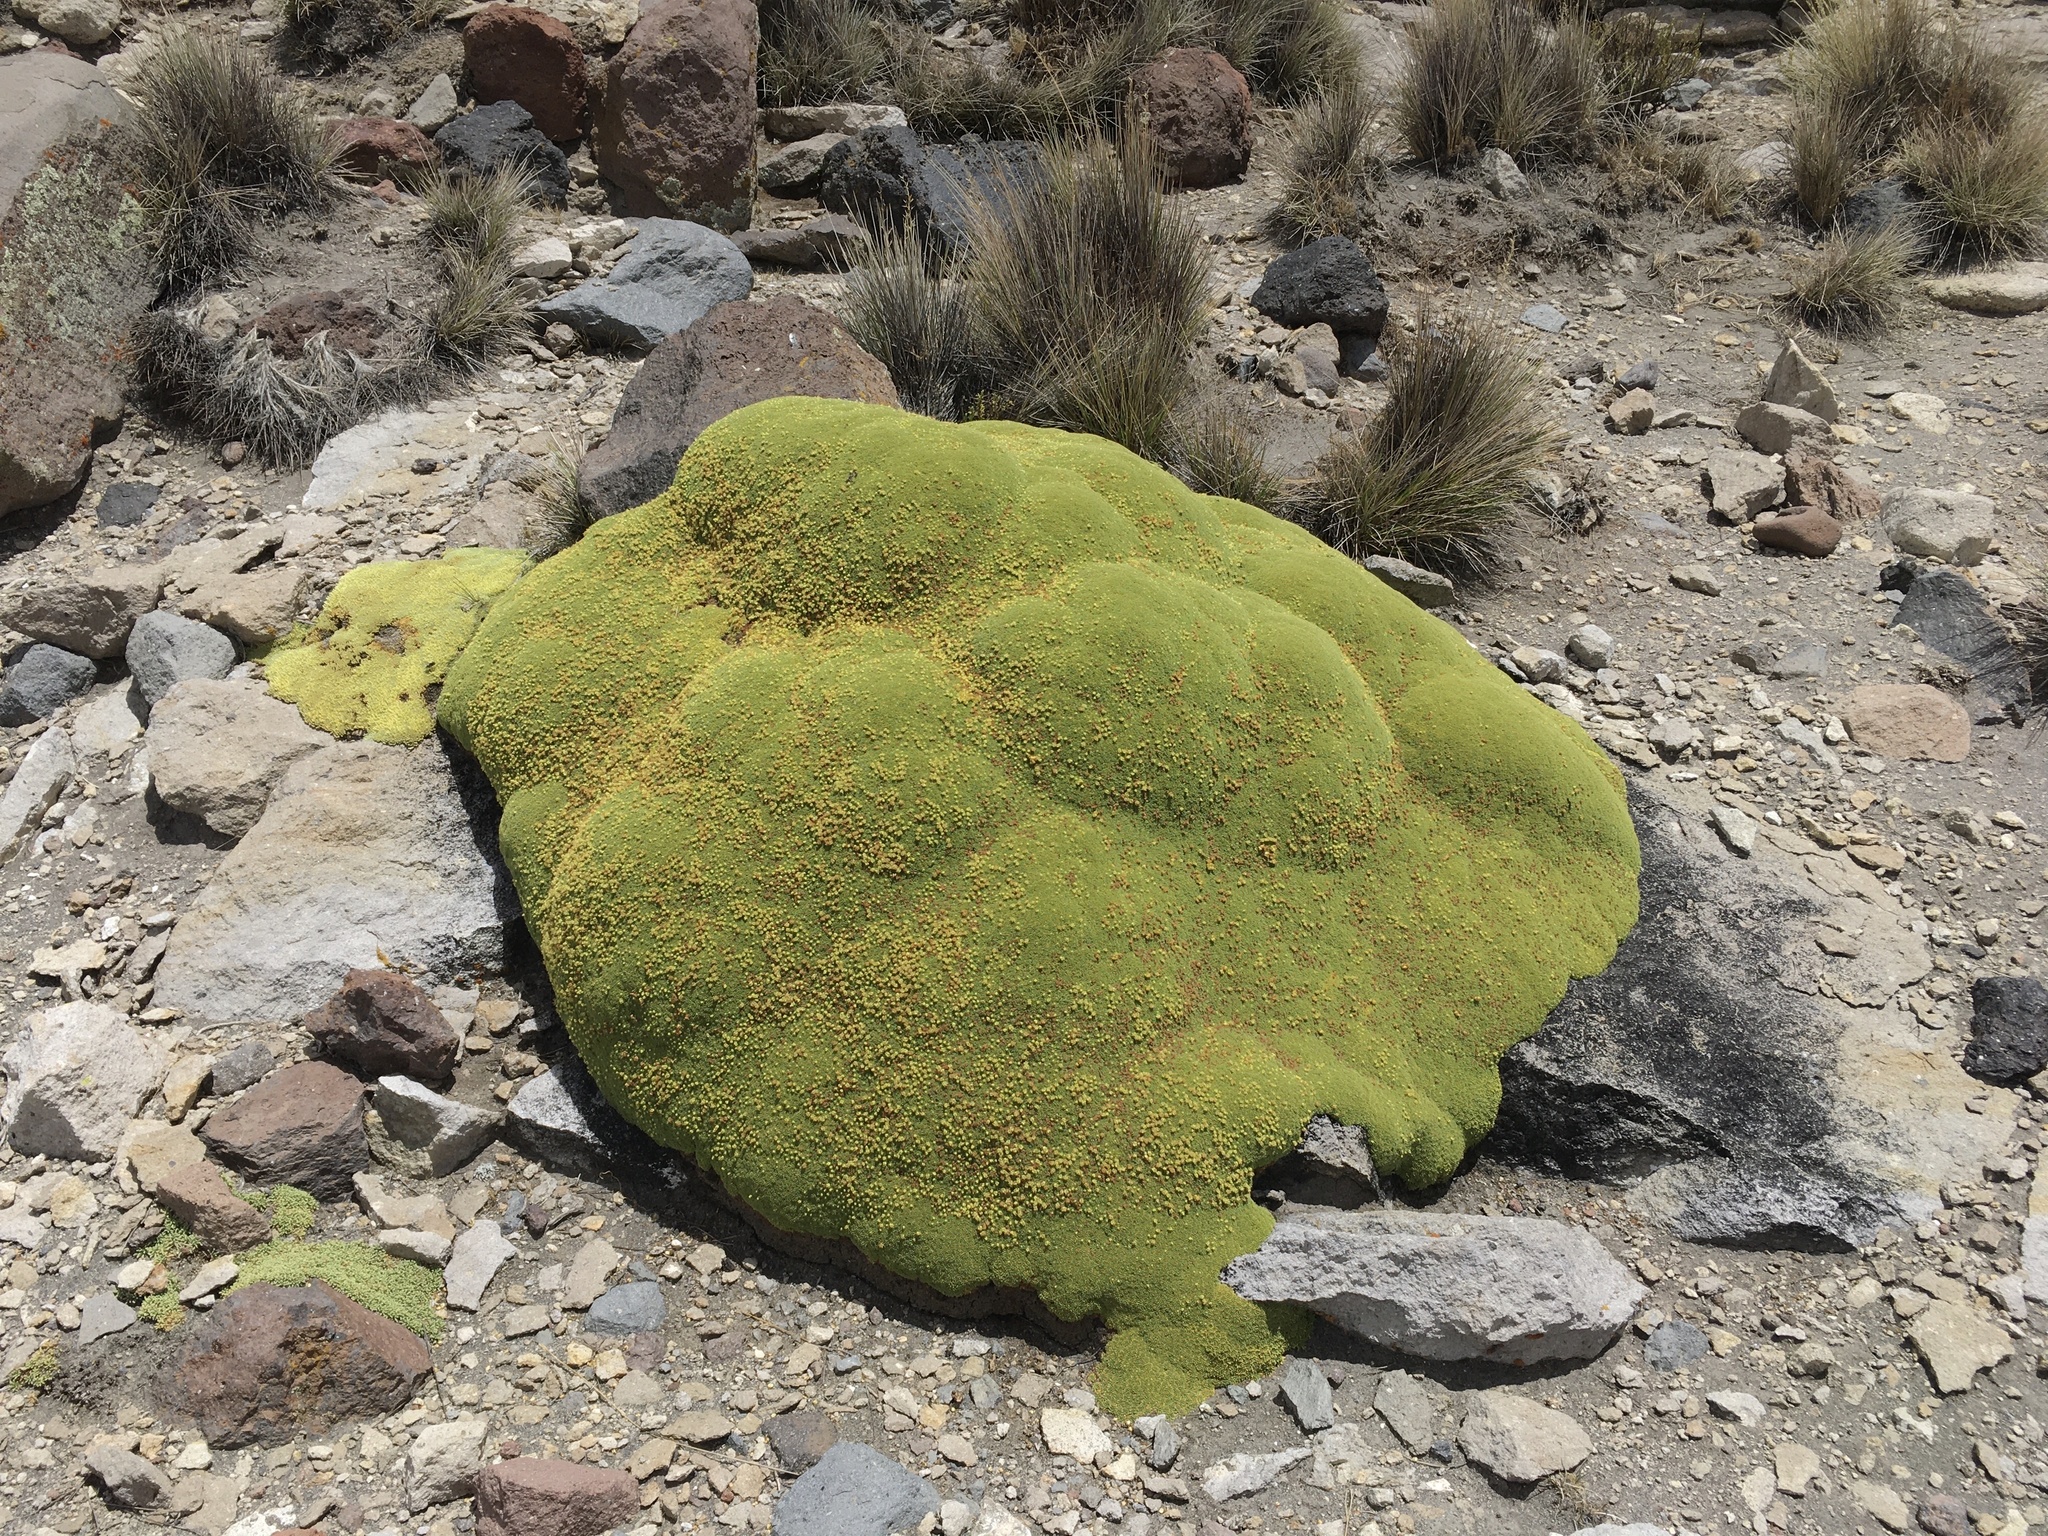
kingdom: Plantae
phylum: Tracheophyta
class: Magnoliopsida
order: Apiales
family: Apiaceae
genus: Azorella
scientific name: Azorella compacta
